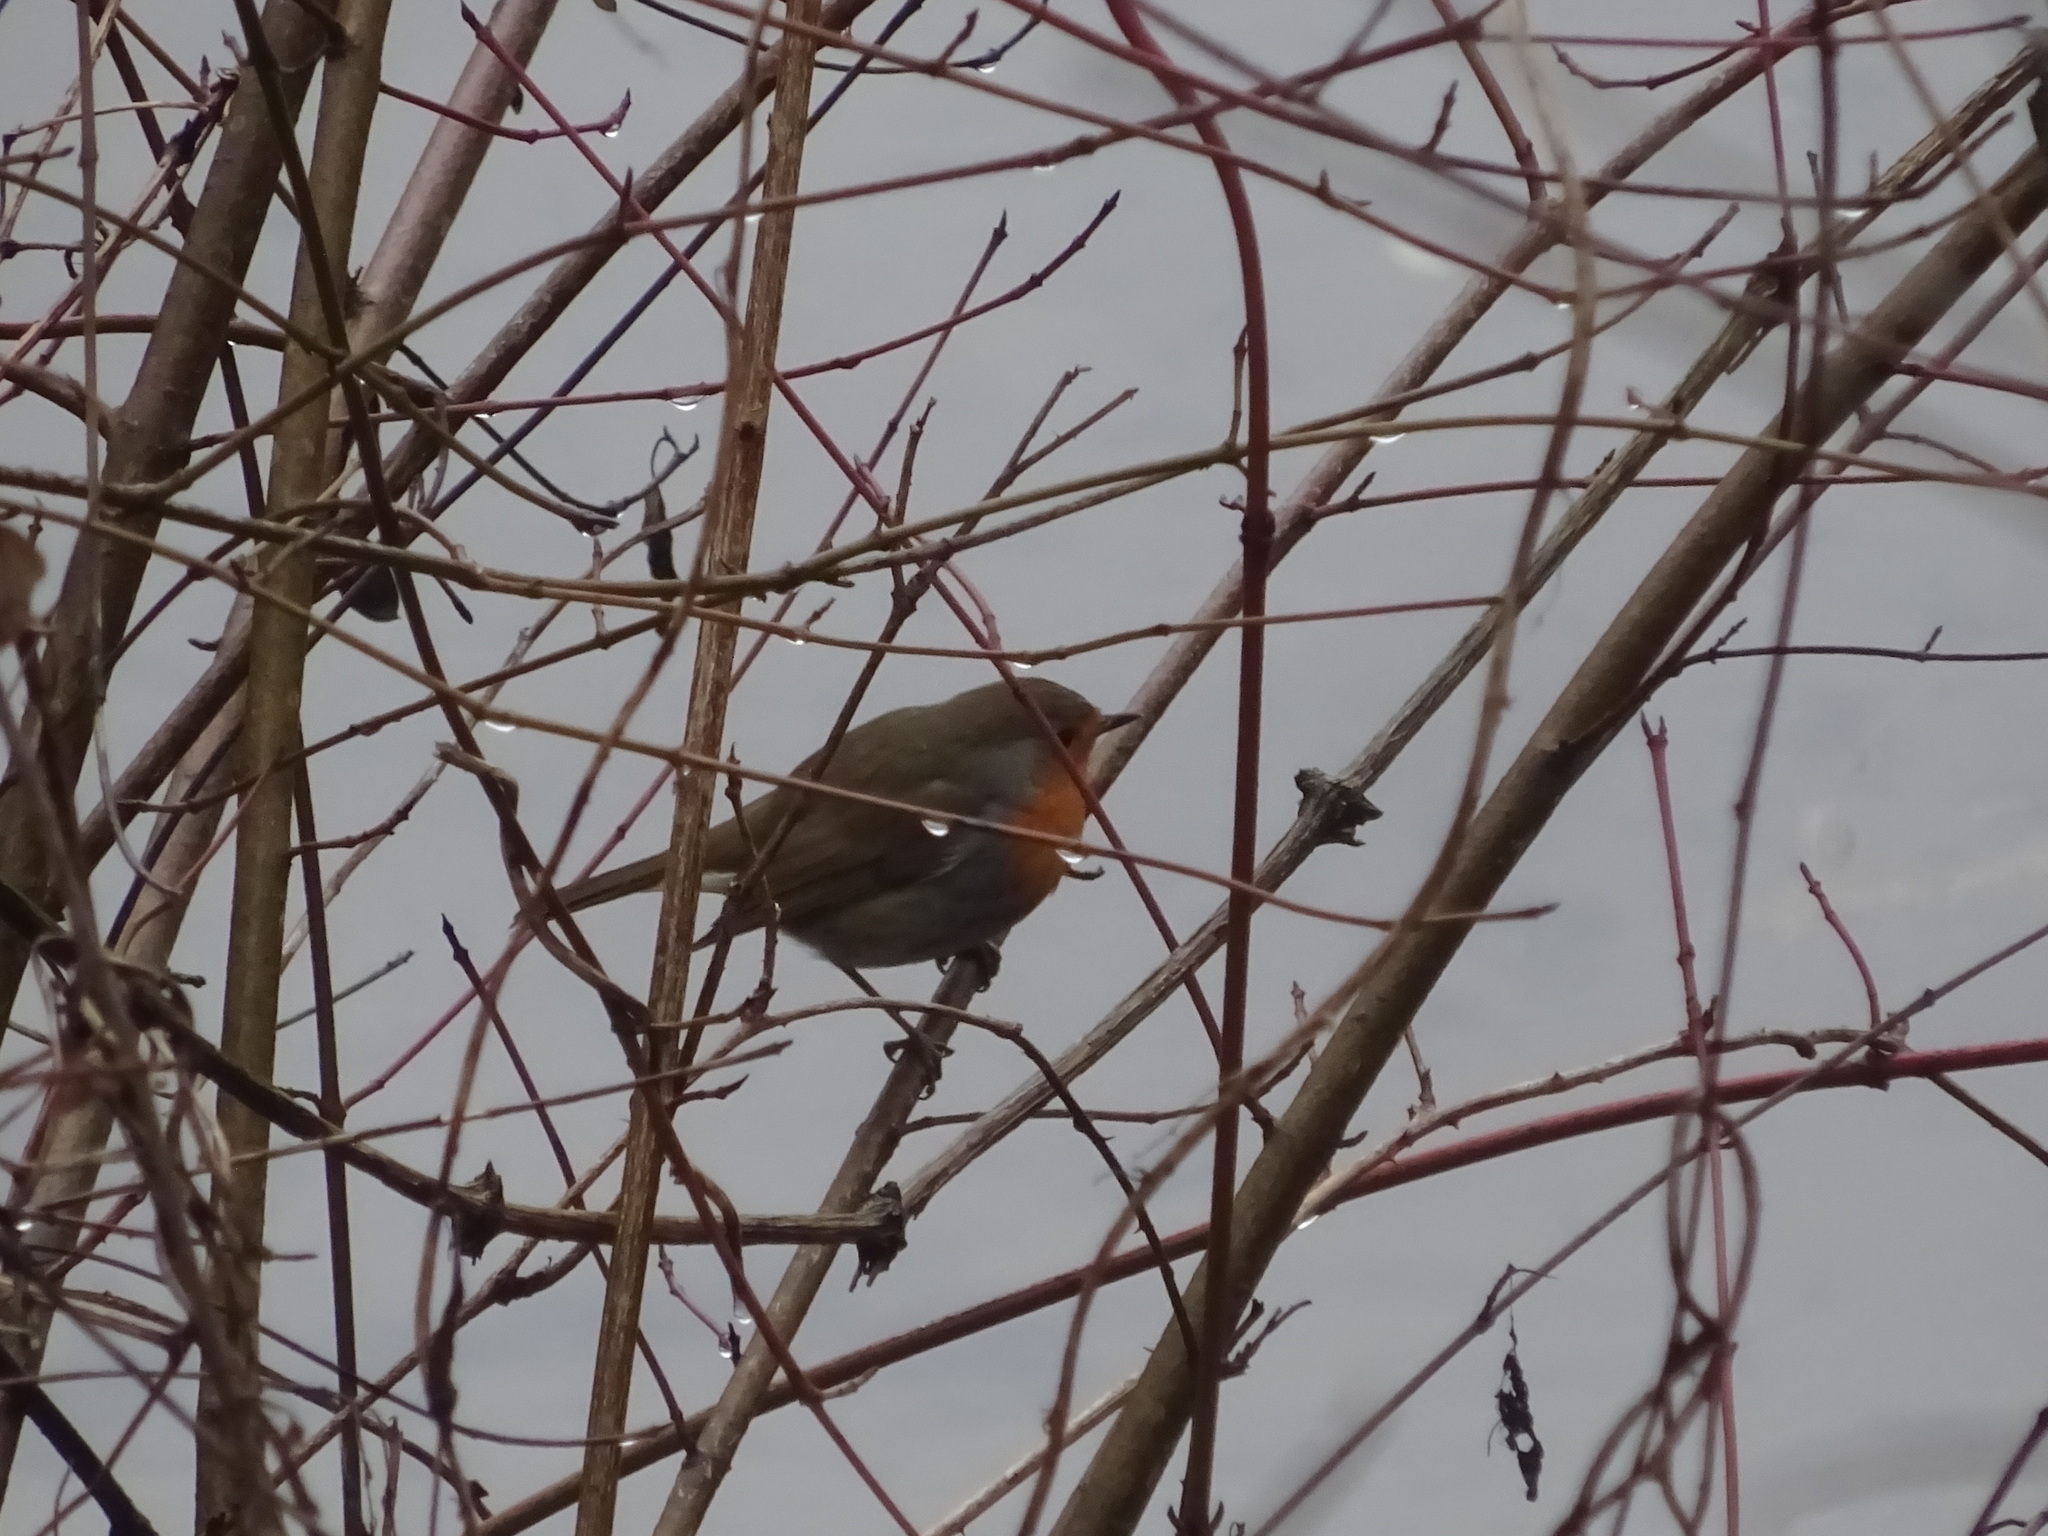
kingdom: Animalia
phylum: Chordata
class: Aves
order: Passeriformes
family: Muscicapidae
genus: Erithacus
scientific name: Erithacus rubecula
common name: European robin
